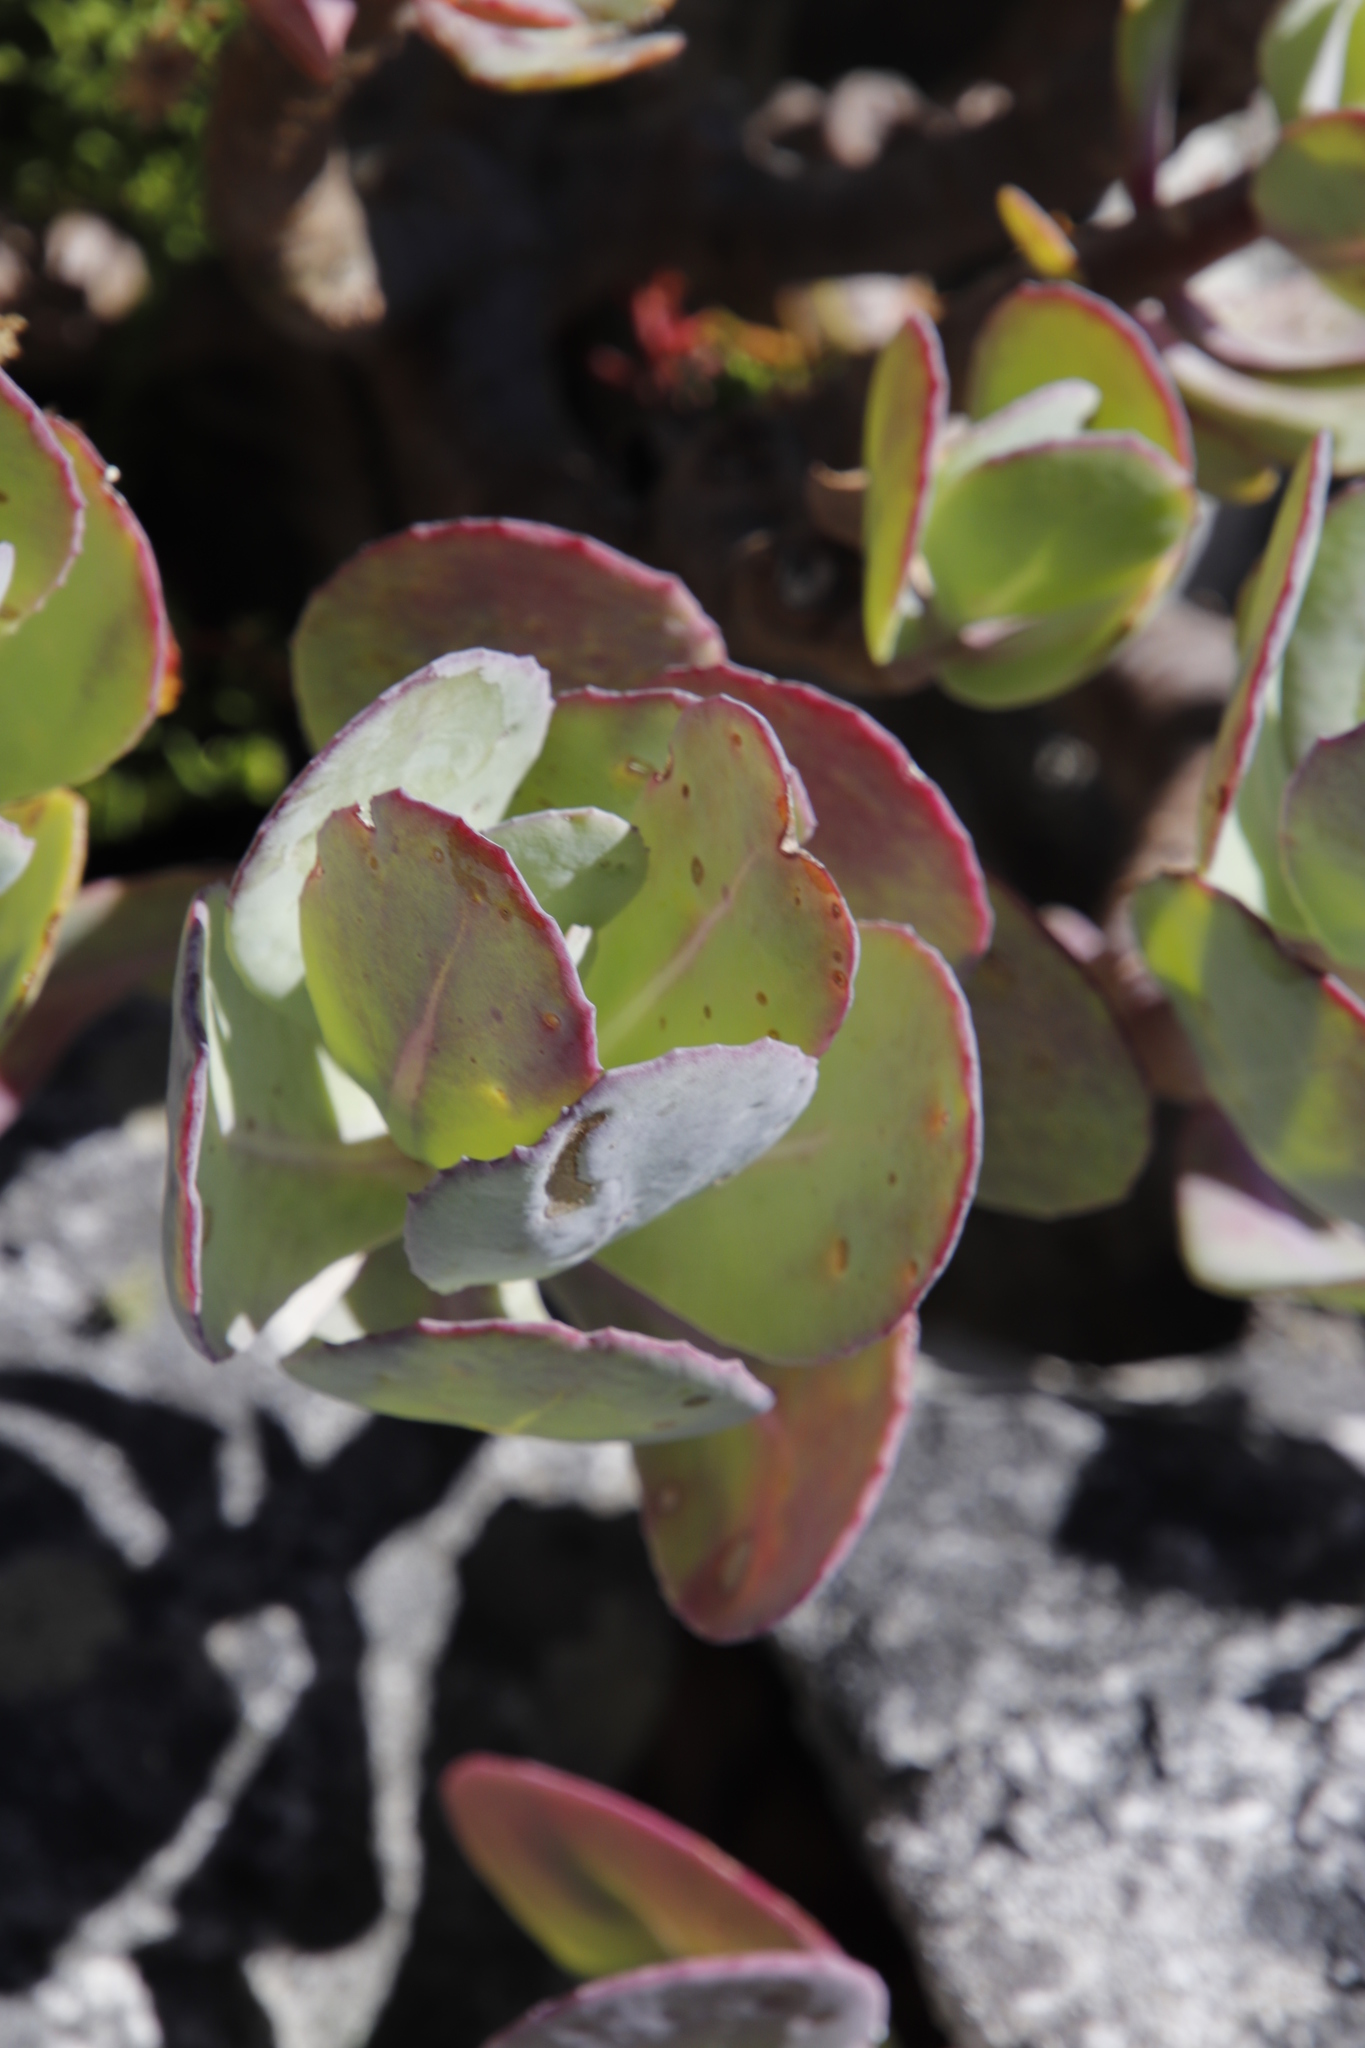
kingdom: Plantae
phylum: Tracheophyta
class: Magnoliopsida
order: Asterales
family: Asteraceae
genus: Othonna
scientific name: Othonna dentata
